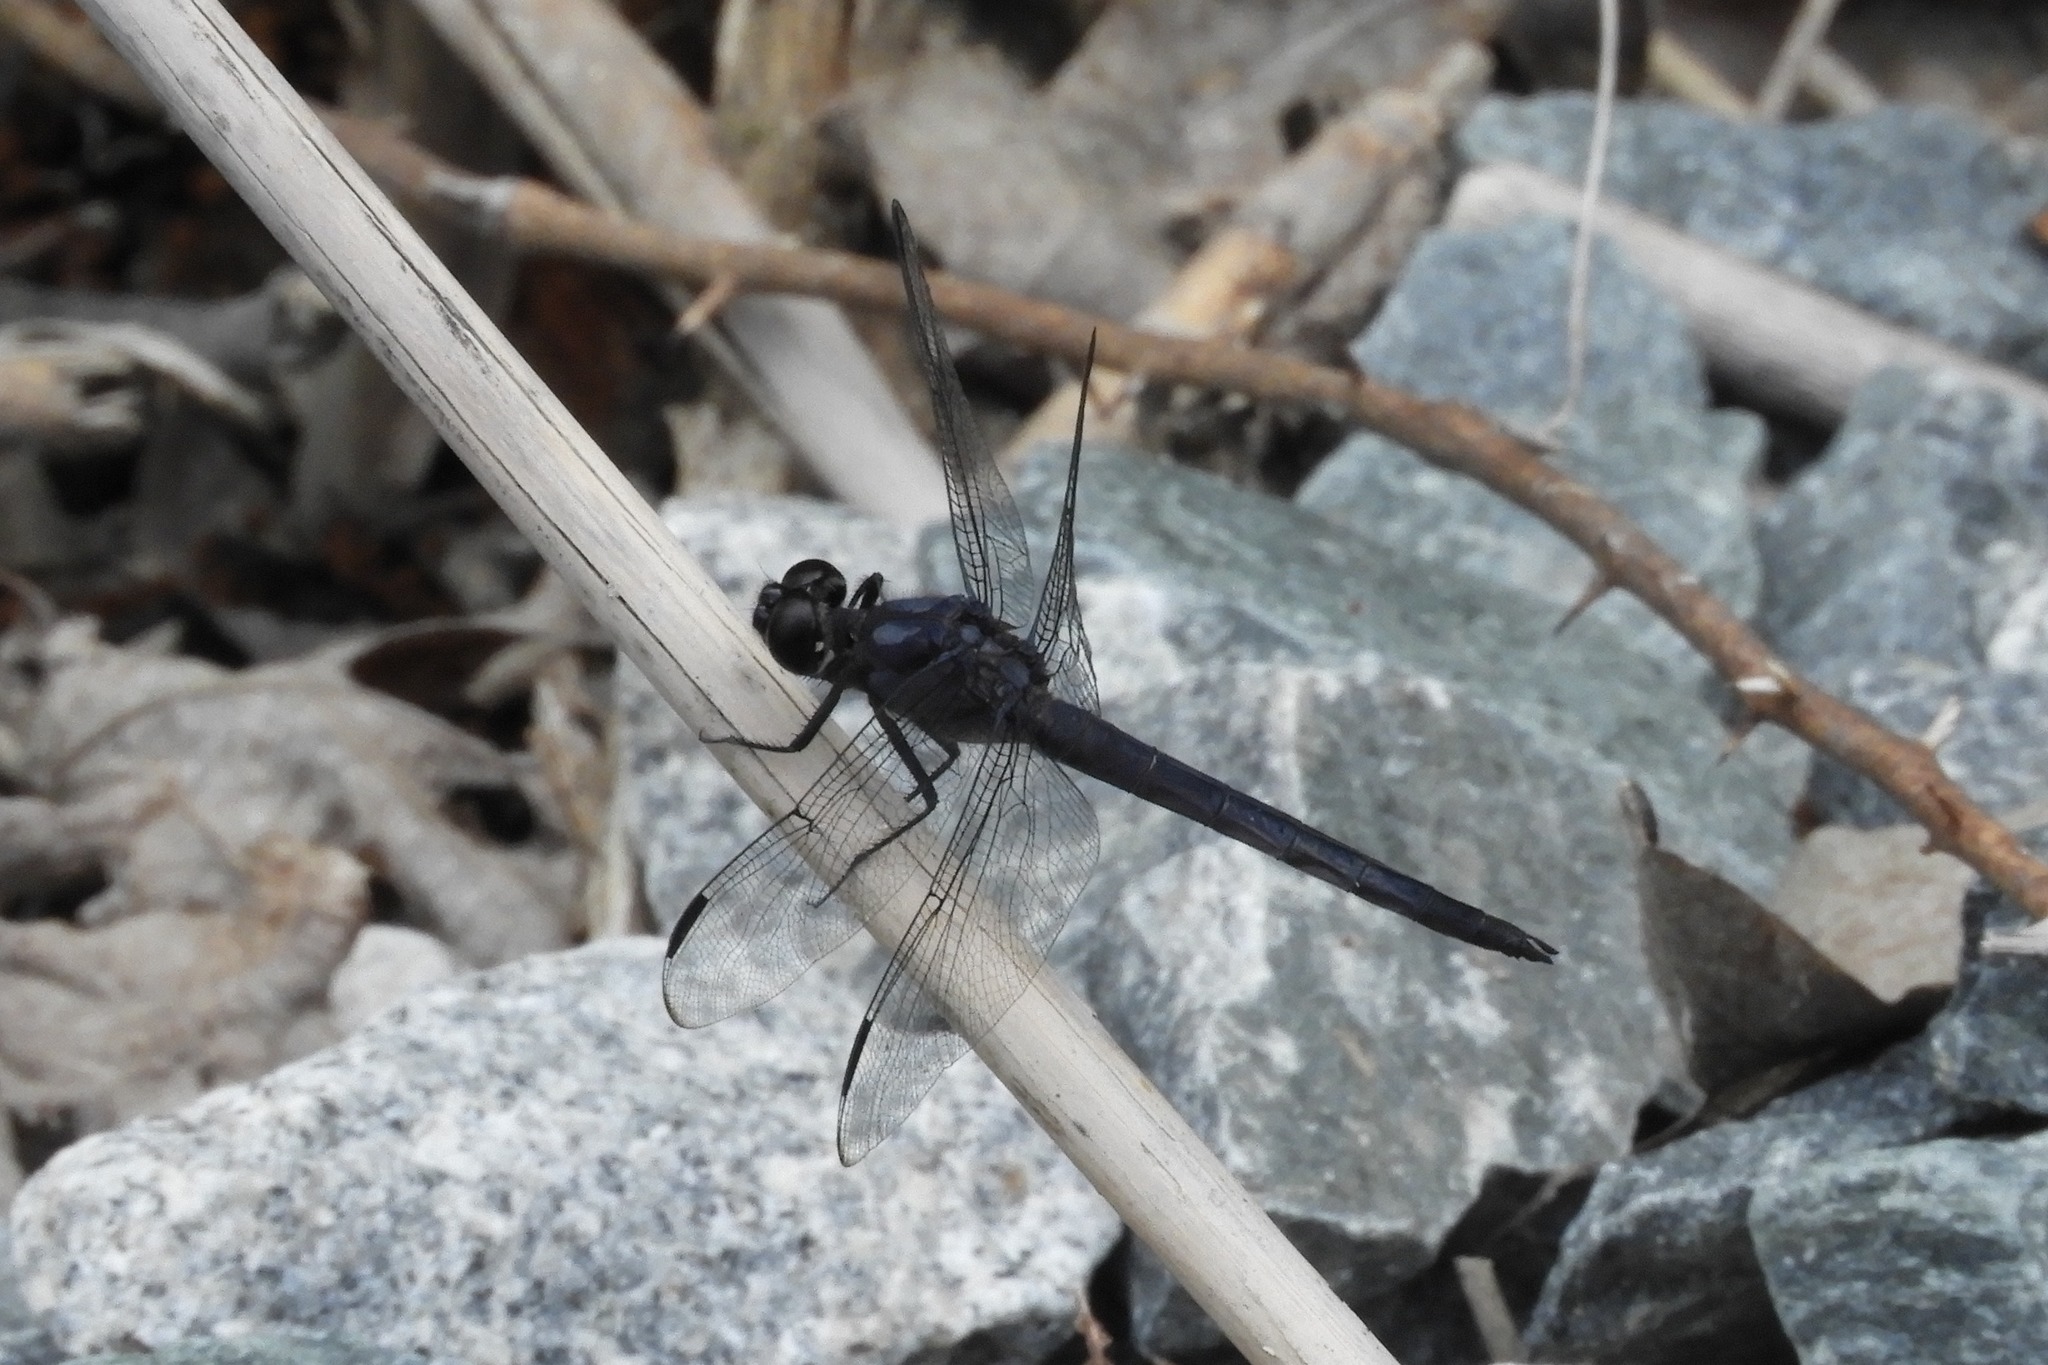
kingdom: Animalia
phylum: Arthropoda
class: Insecta
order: Odonata
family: Libellulidae
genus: Libellula
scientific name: Libellula incesta
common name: Slaty skimmer
